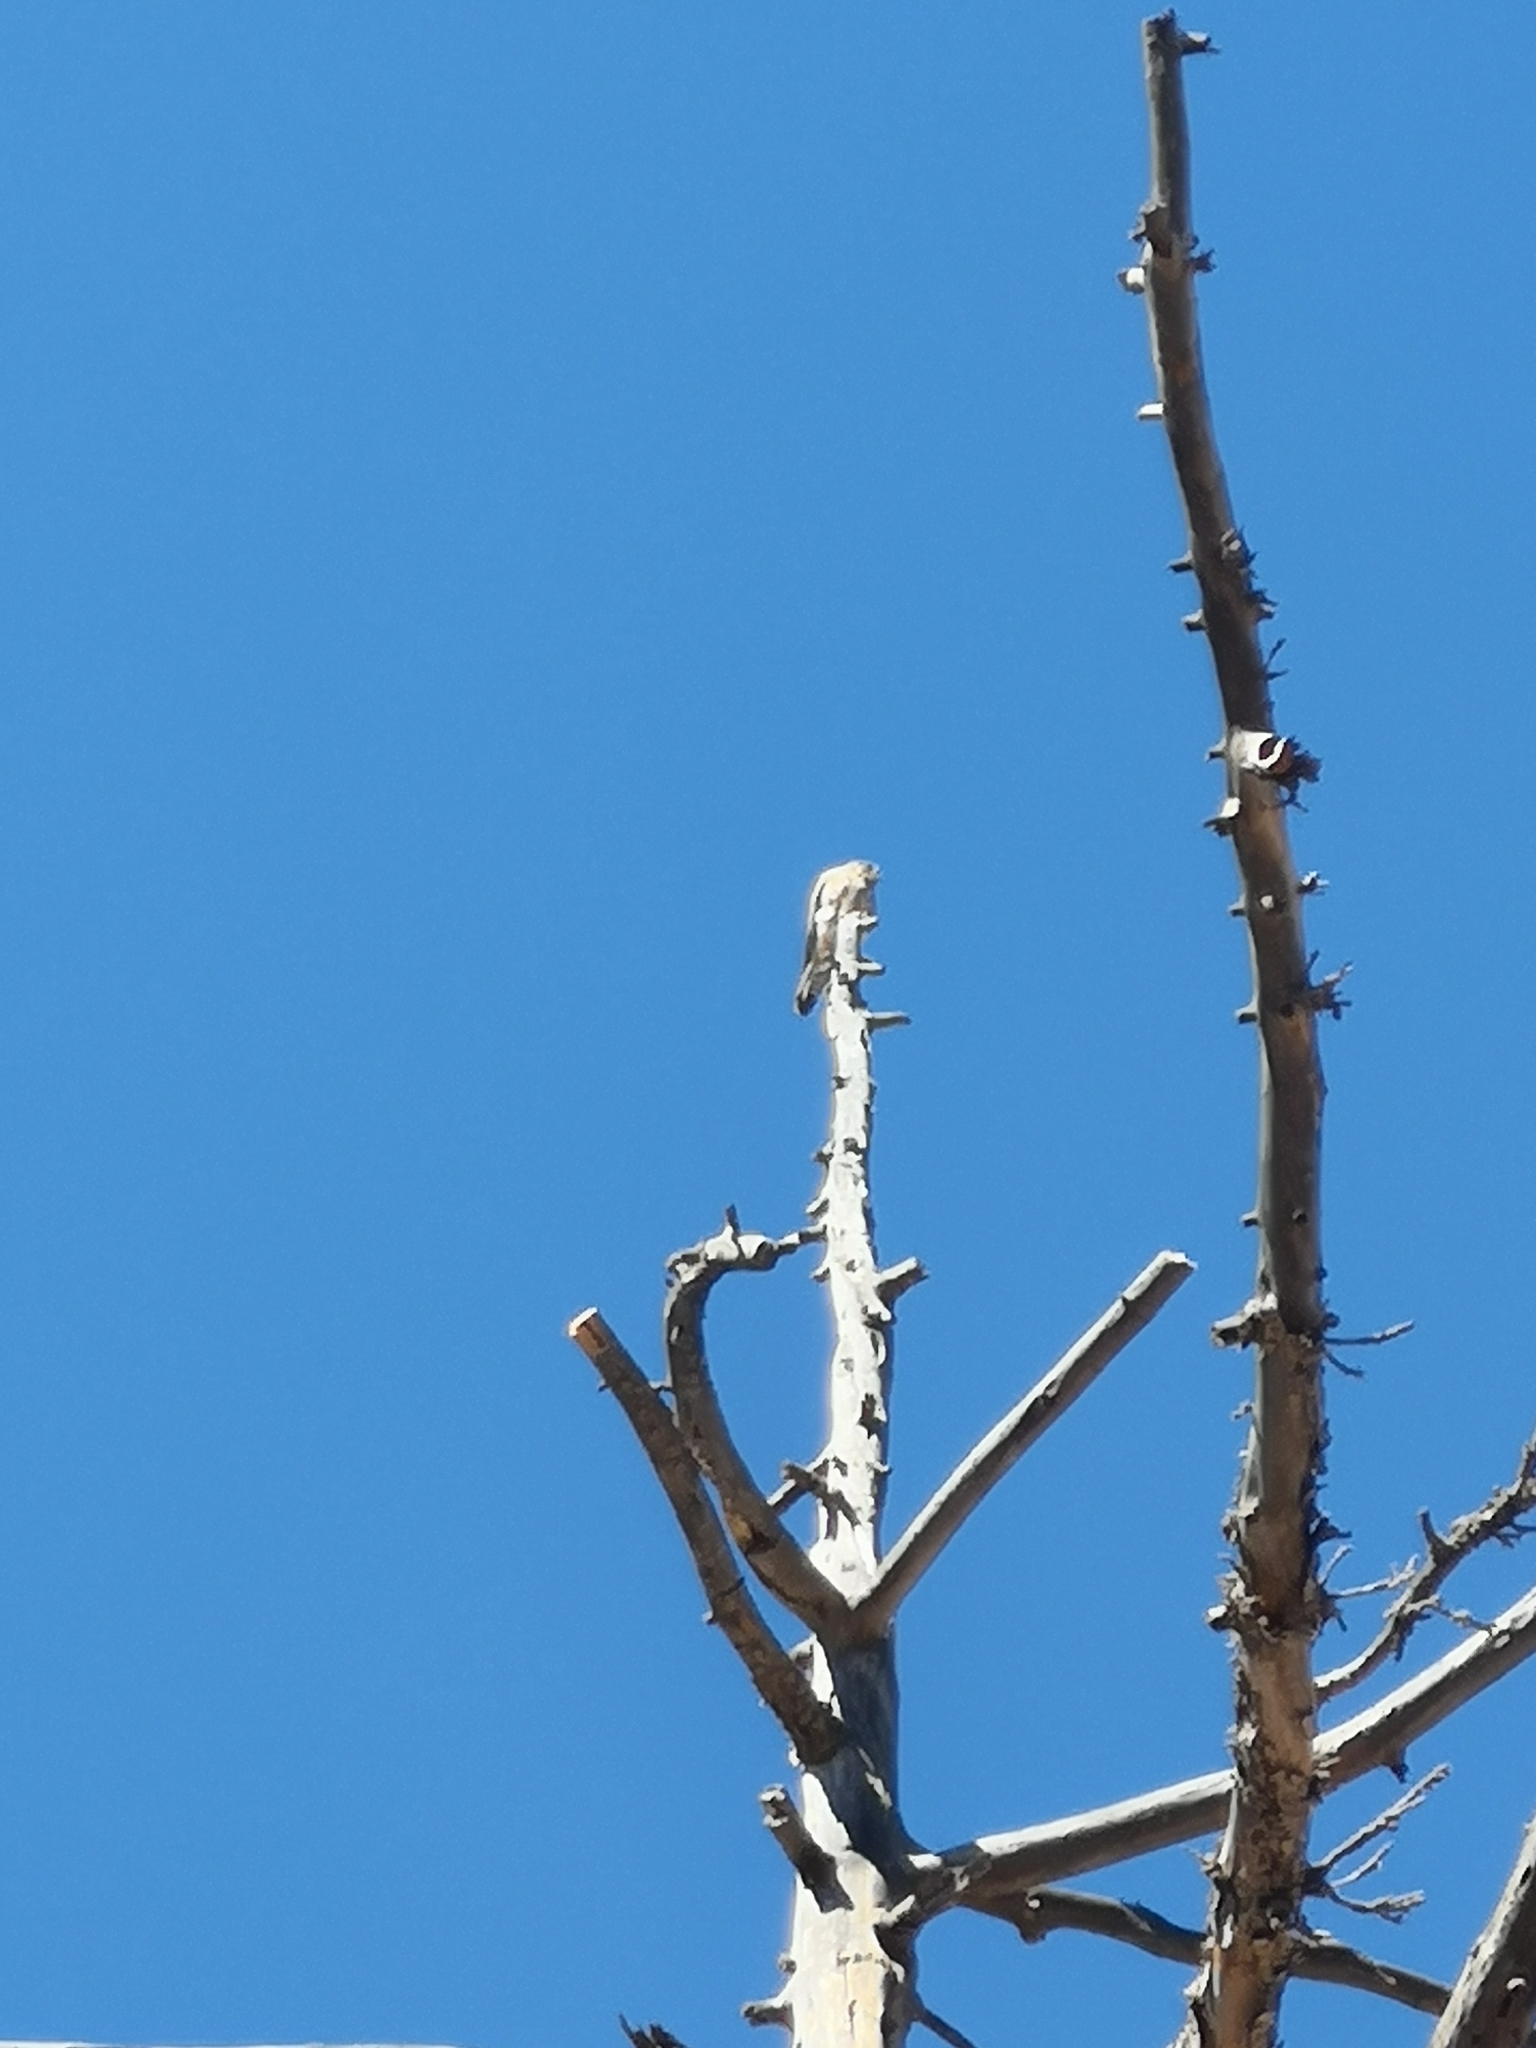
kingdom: Animalia
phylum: Chordata
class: Aves
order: Falconiformes
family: Falconidae
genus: Falco
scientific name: Falco tinnunculus
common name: Common kestrel
